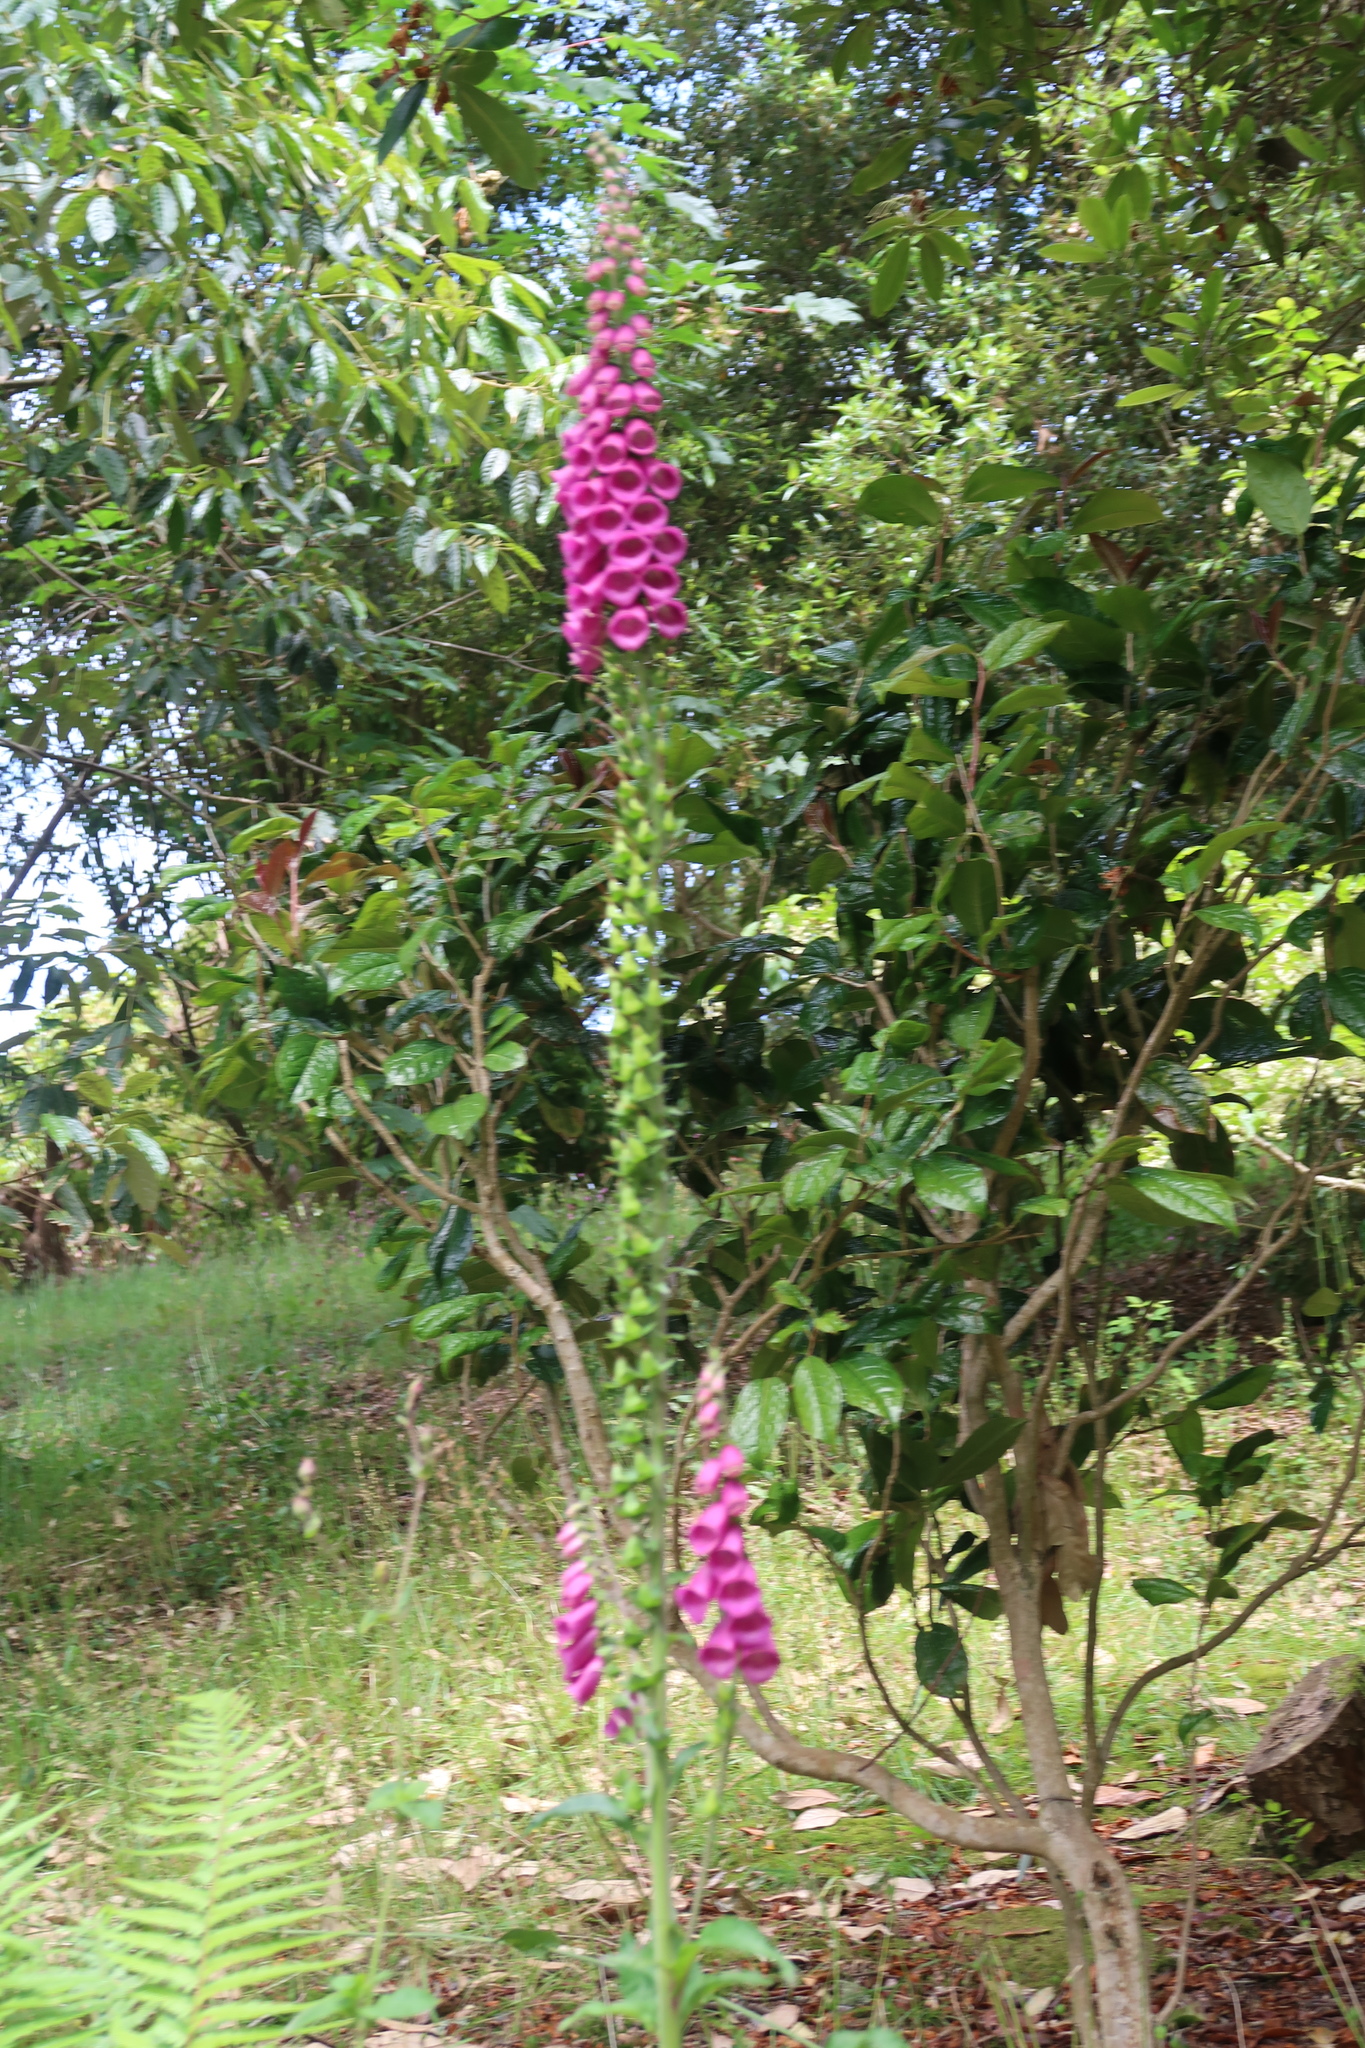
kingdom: Plantae
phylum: Tracheophyta
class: Magnoliopsida
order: Lamiales
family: Plantaginaceae
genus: Digitalis
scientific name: Digitalis purpurea
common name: Foxglove
